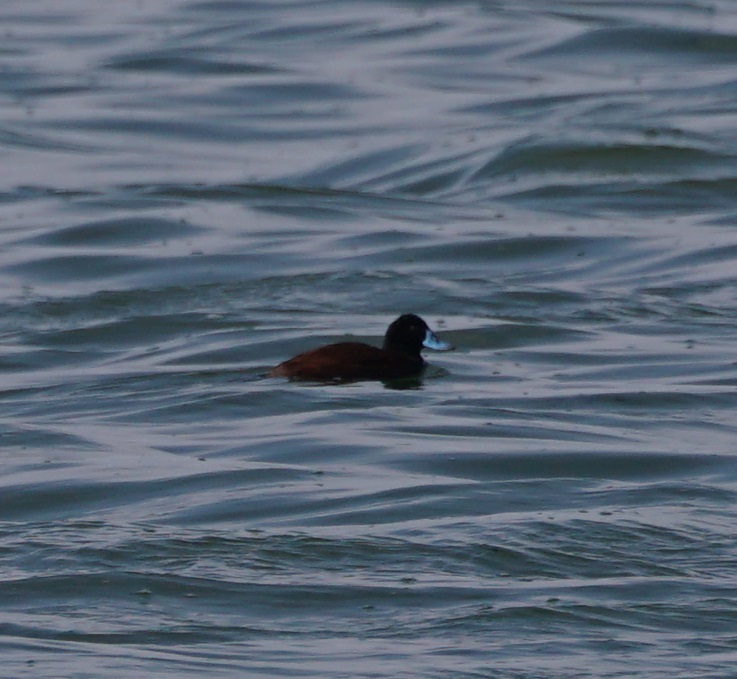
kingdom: Animalia
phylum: Chordata
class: Aves
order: Anseriformes
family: Anatidae
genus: Oxyura
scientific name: Oxyura ferruginea
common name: Andean duck
